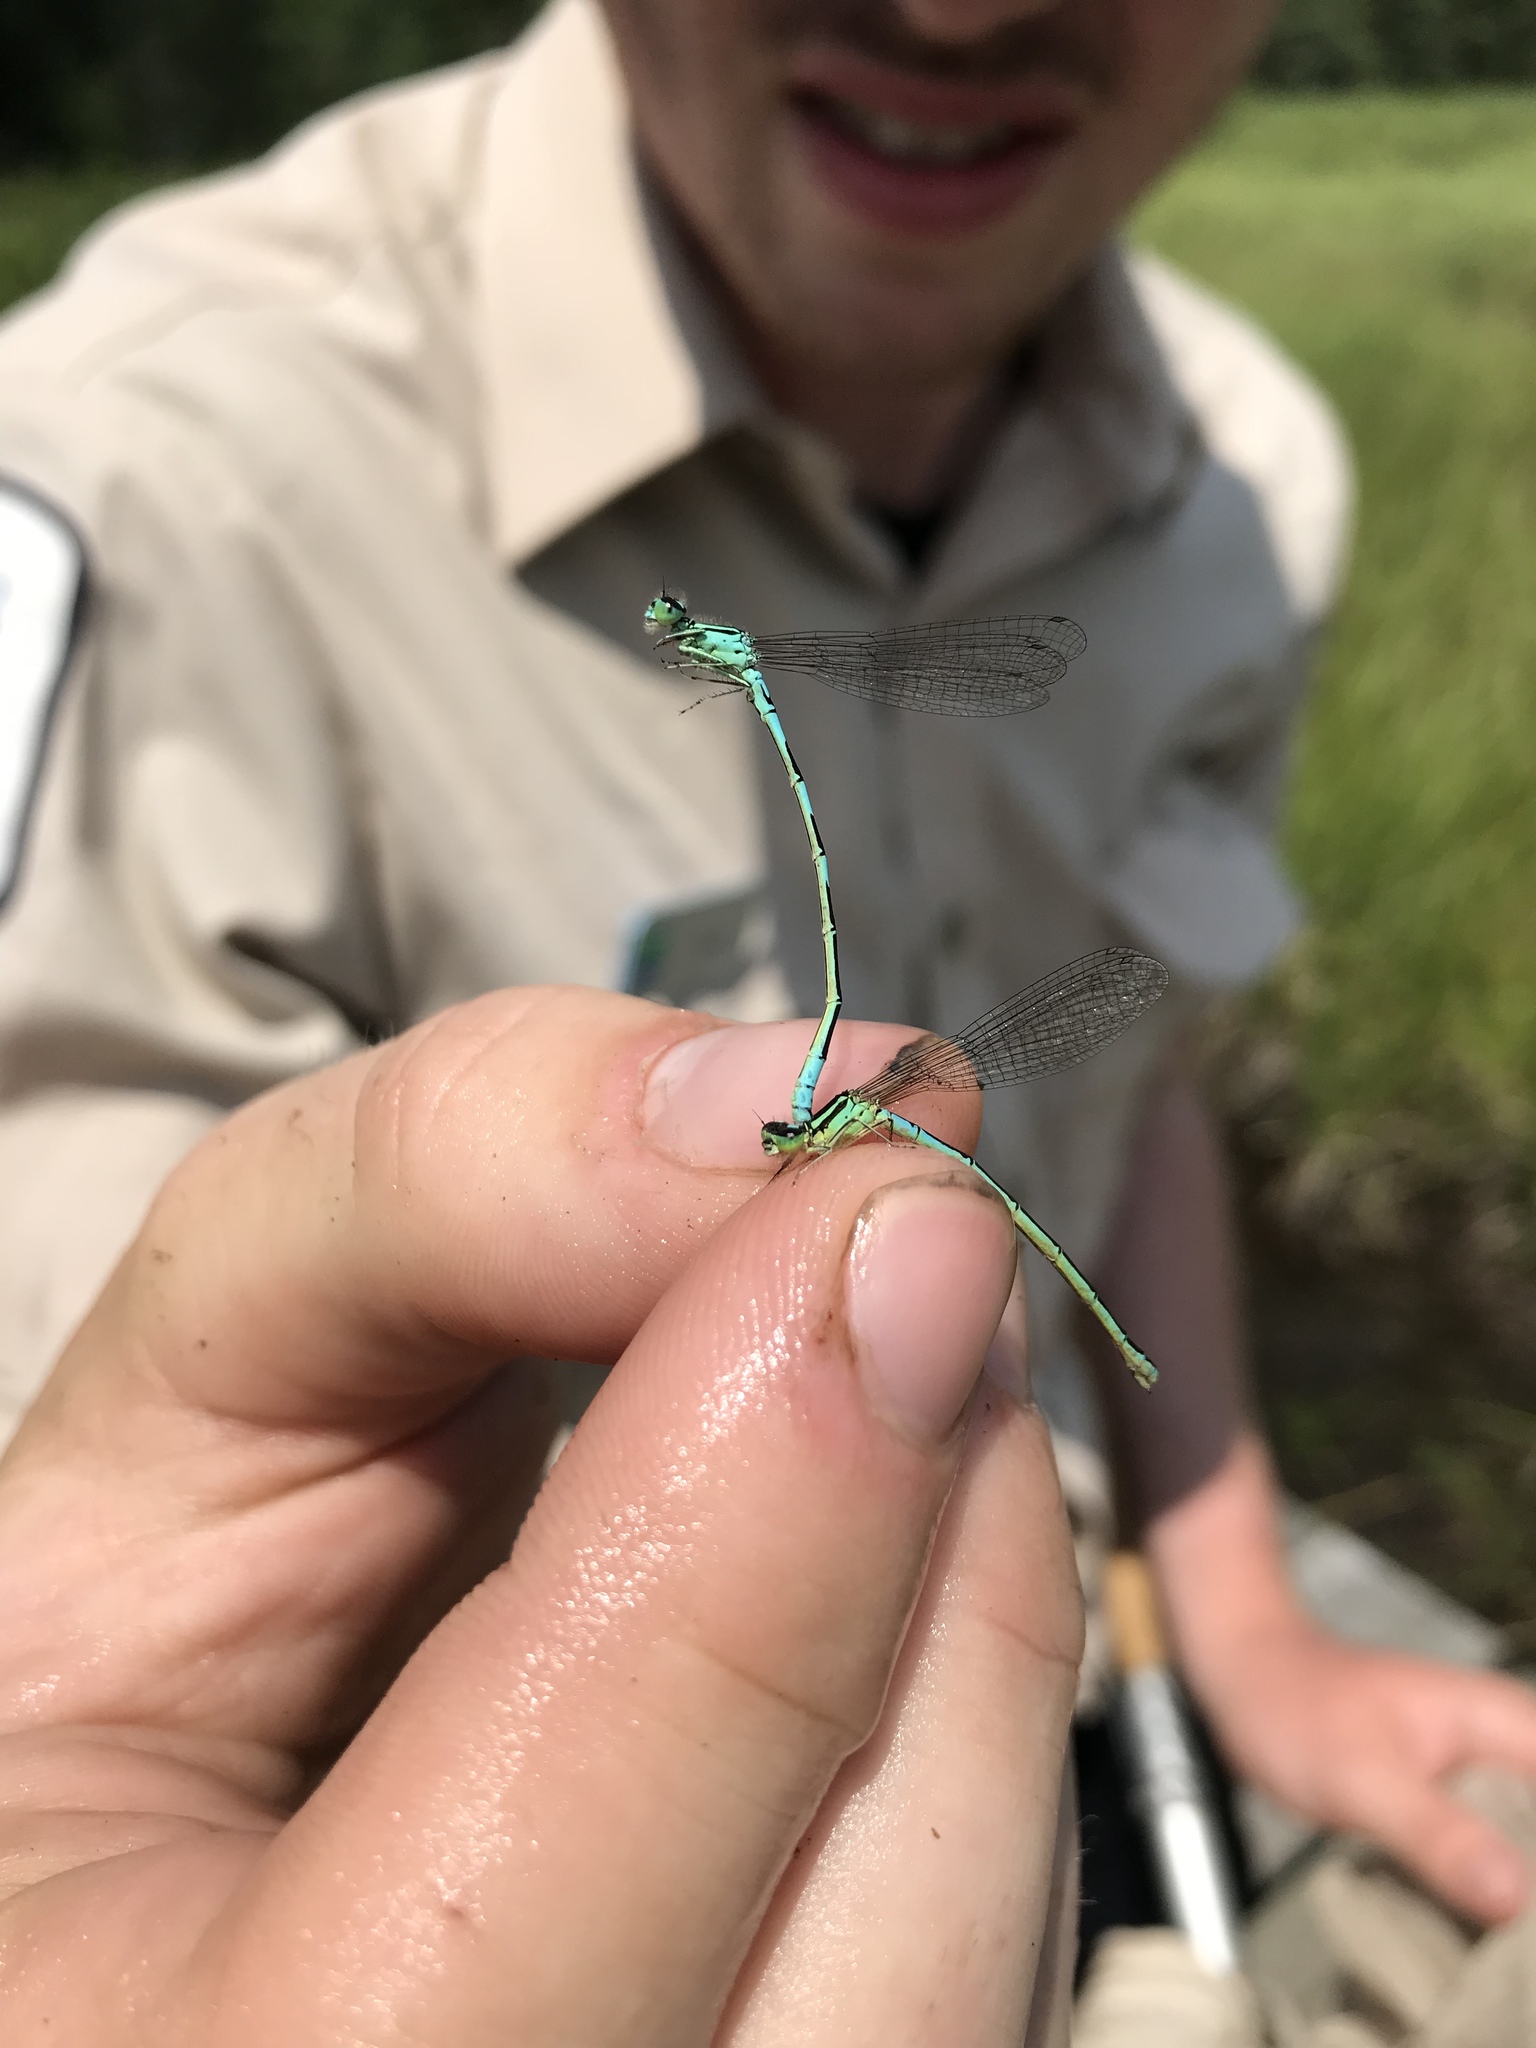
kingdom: Animalia
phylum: Arthropoda
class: Insecta
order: Odonata
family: Coenagrionidae
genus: Coenagrion
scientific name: Coenagrion resolutum
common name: Taiga bluet
